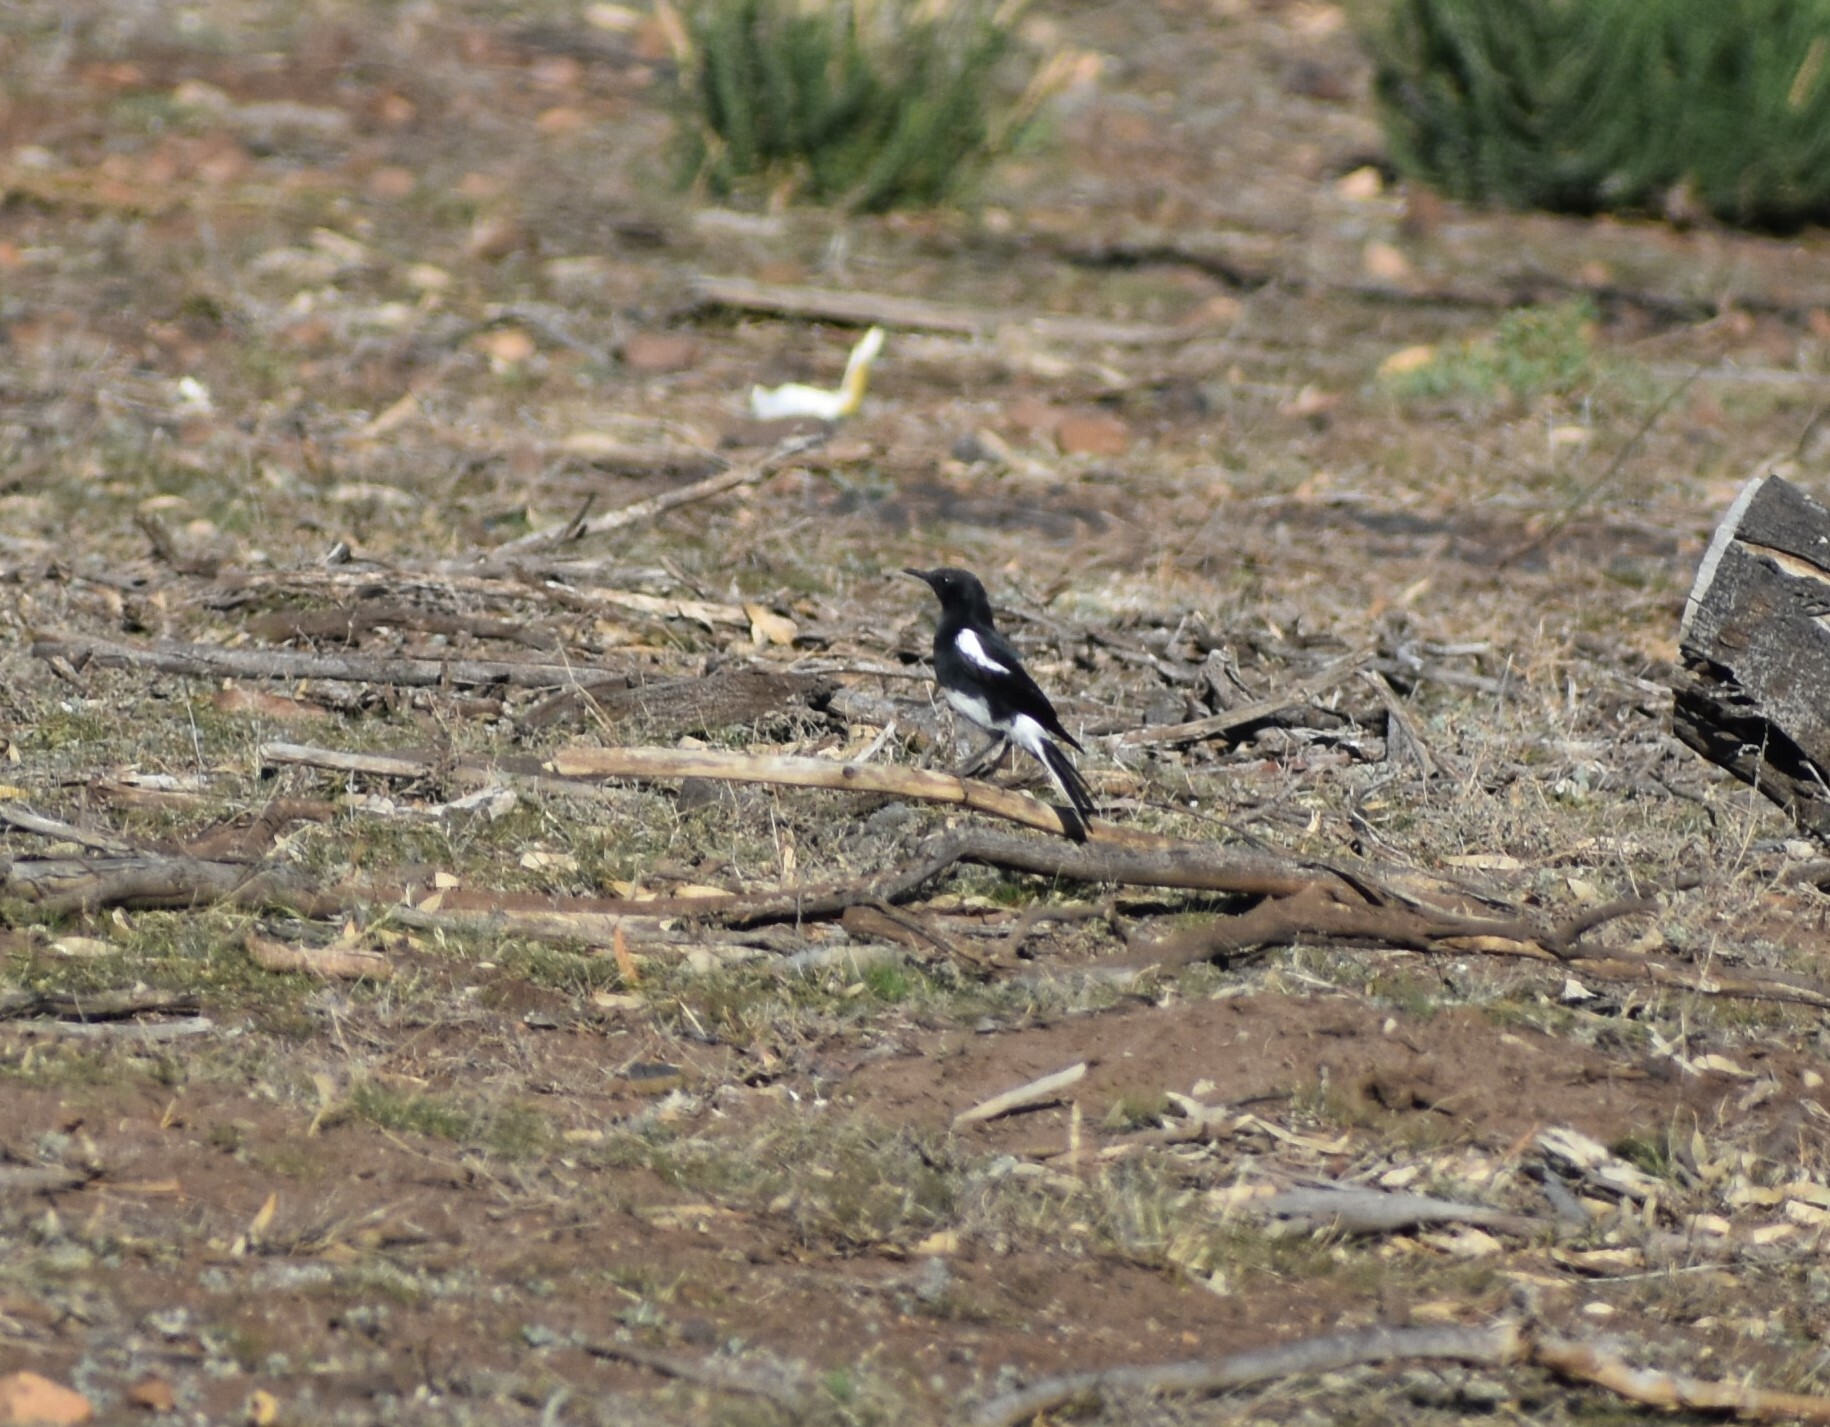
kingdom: Animalia
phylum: Chordata
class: Aves
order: Passeriformes
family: Muscicapidae
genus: Oenanthe
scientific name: Oenanthe monticola
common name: Mountain wheatear
